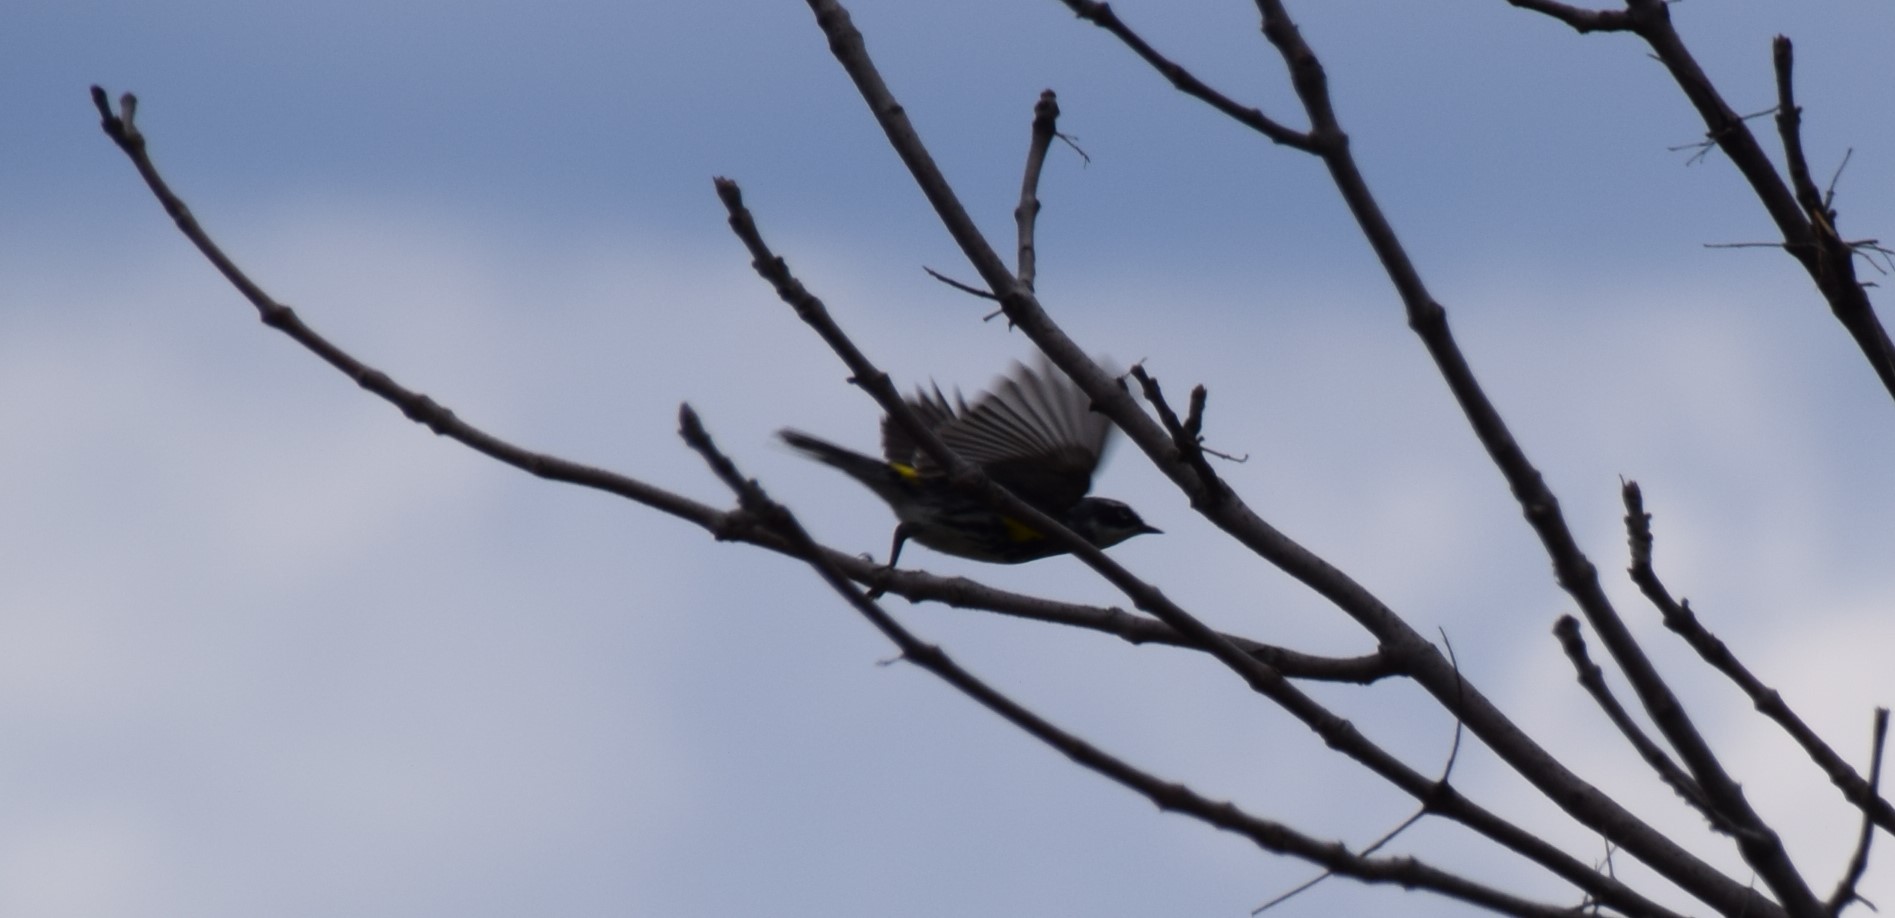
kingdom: Animalia
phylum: Chordata
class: Aves
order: Passeriformes
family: Parulidae
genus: Setophaga
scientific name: Setophaga coronata
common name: Myrtle warbler
